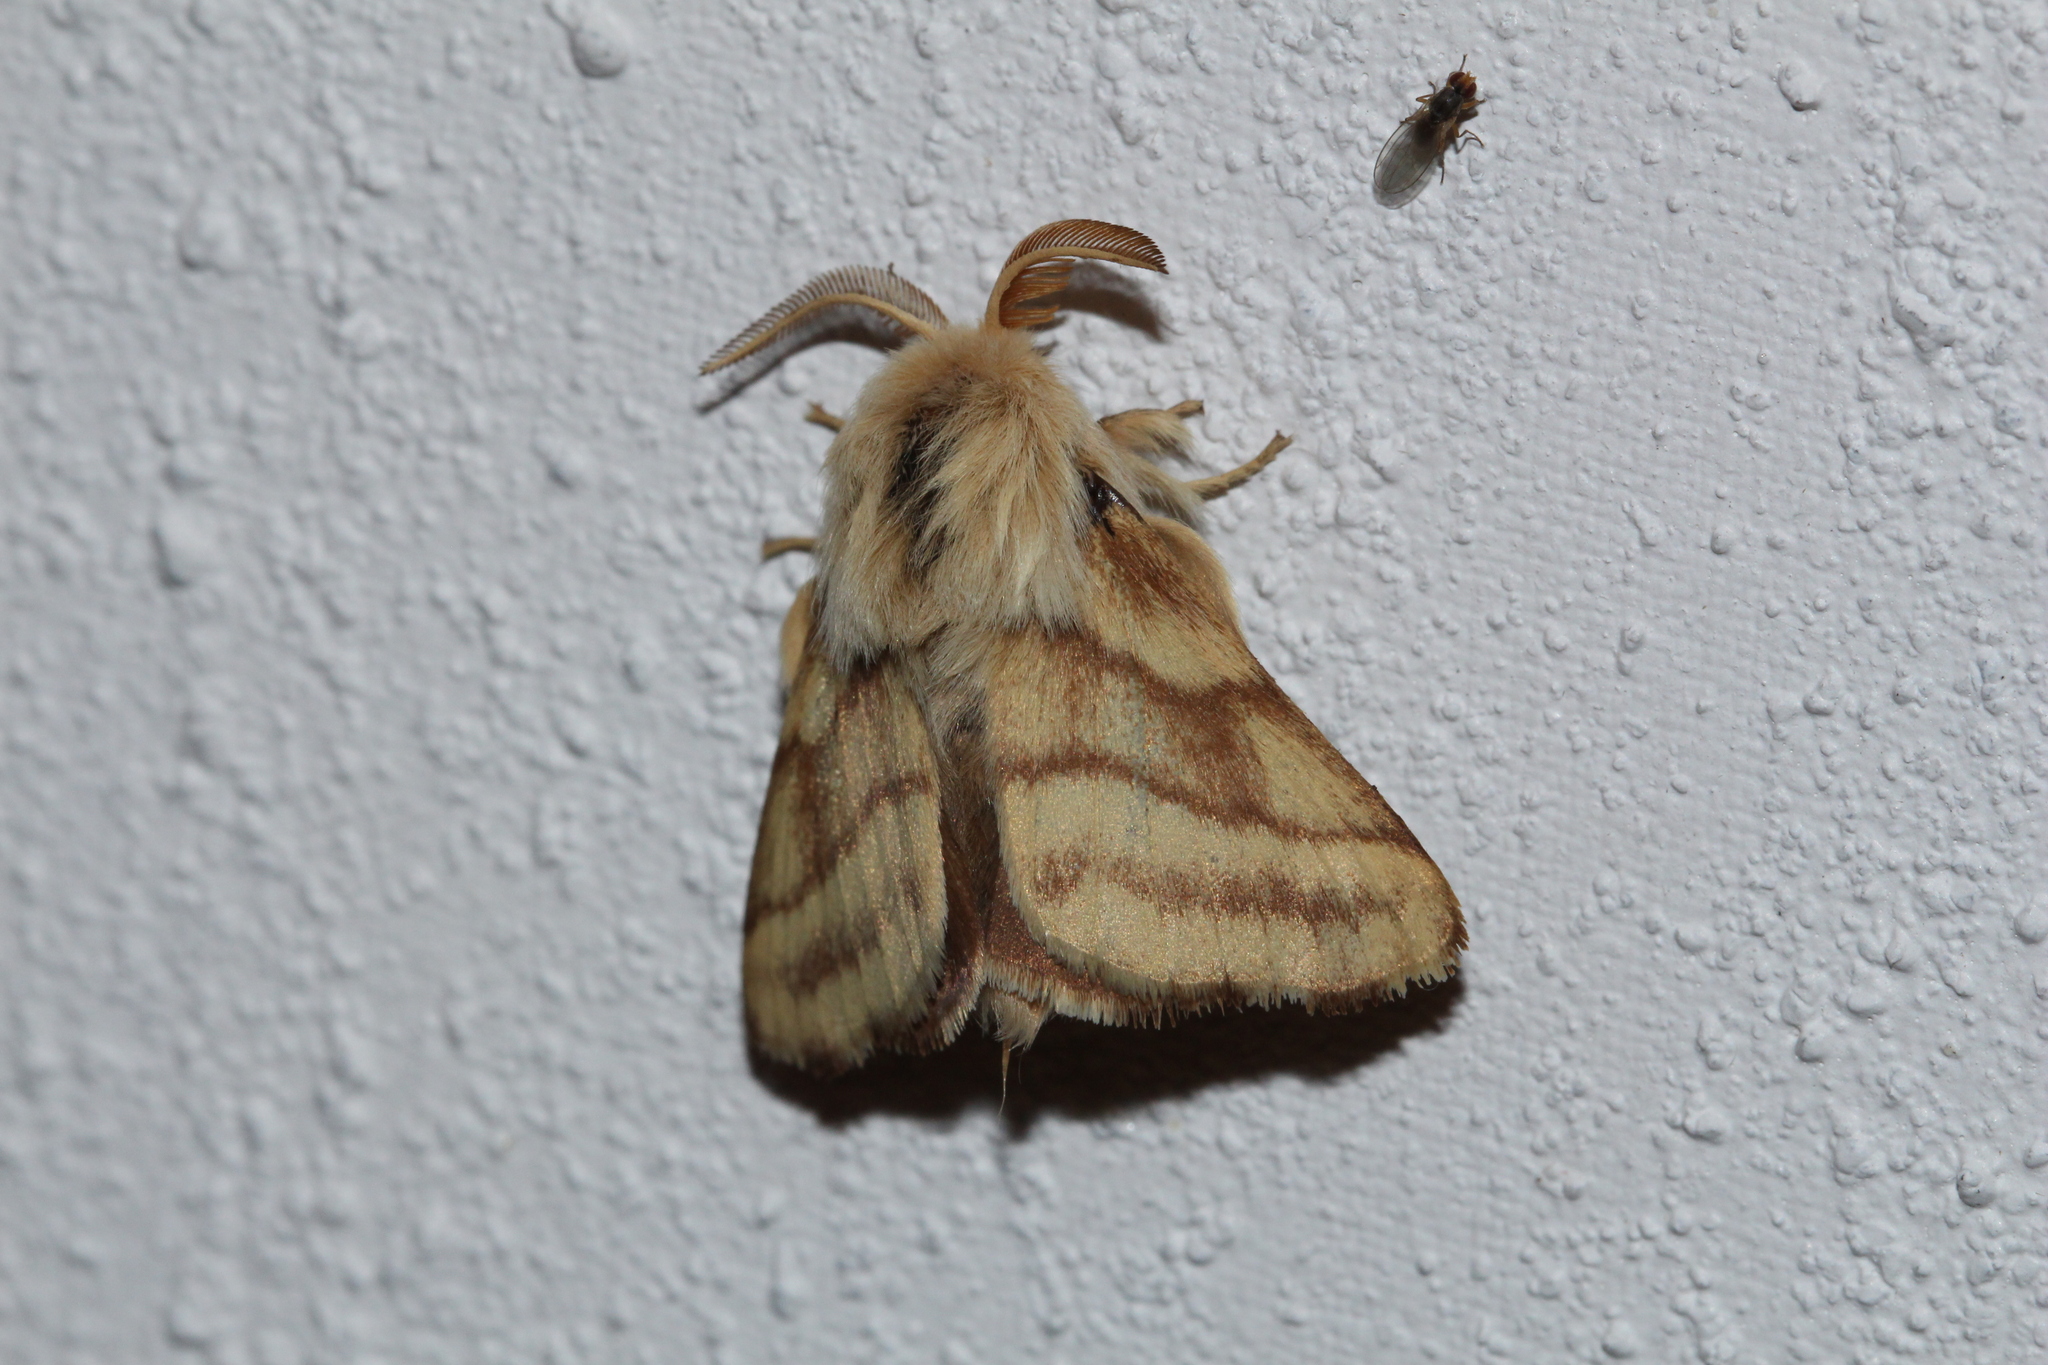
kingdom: Animalia
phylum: Arthropoda
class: Insecta
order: Lepidoptera
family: Lasiocampidae
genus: Malacosoma
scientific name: Malacosoma castrense
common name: Ground lackey
